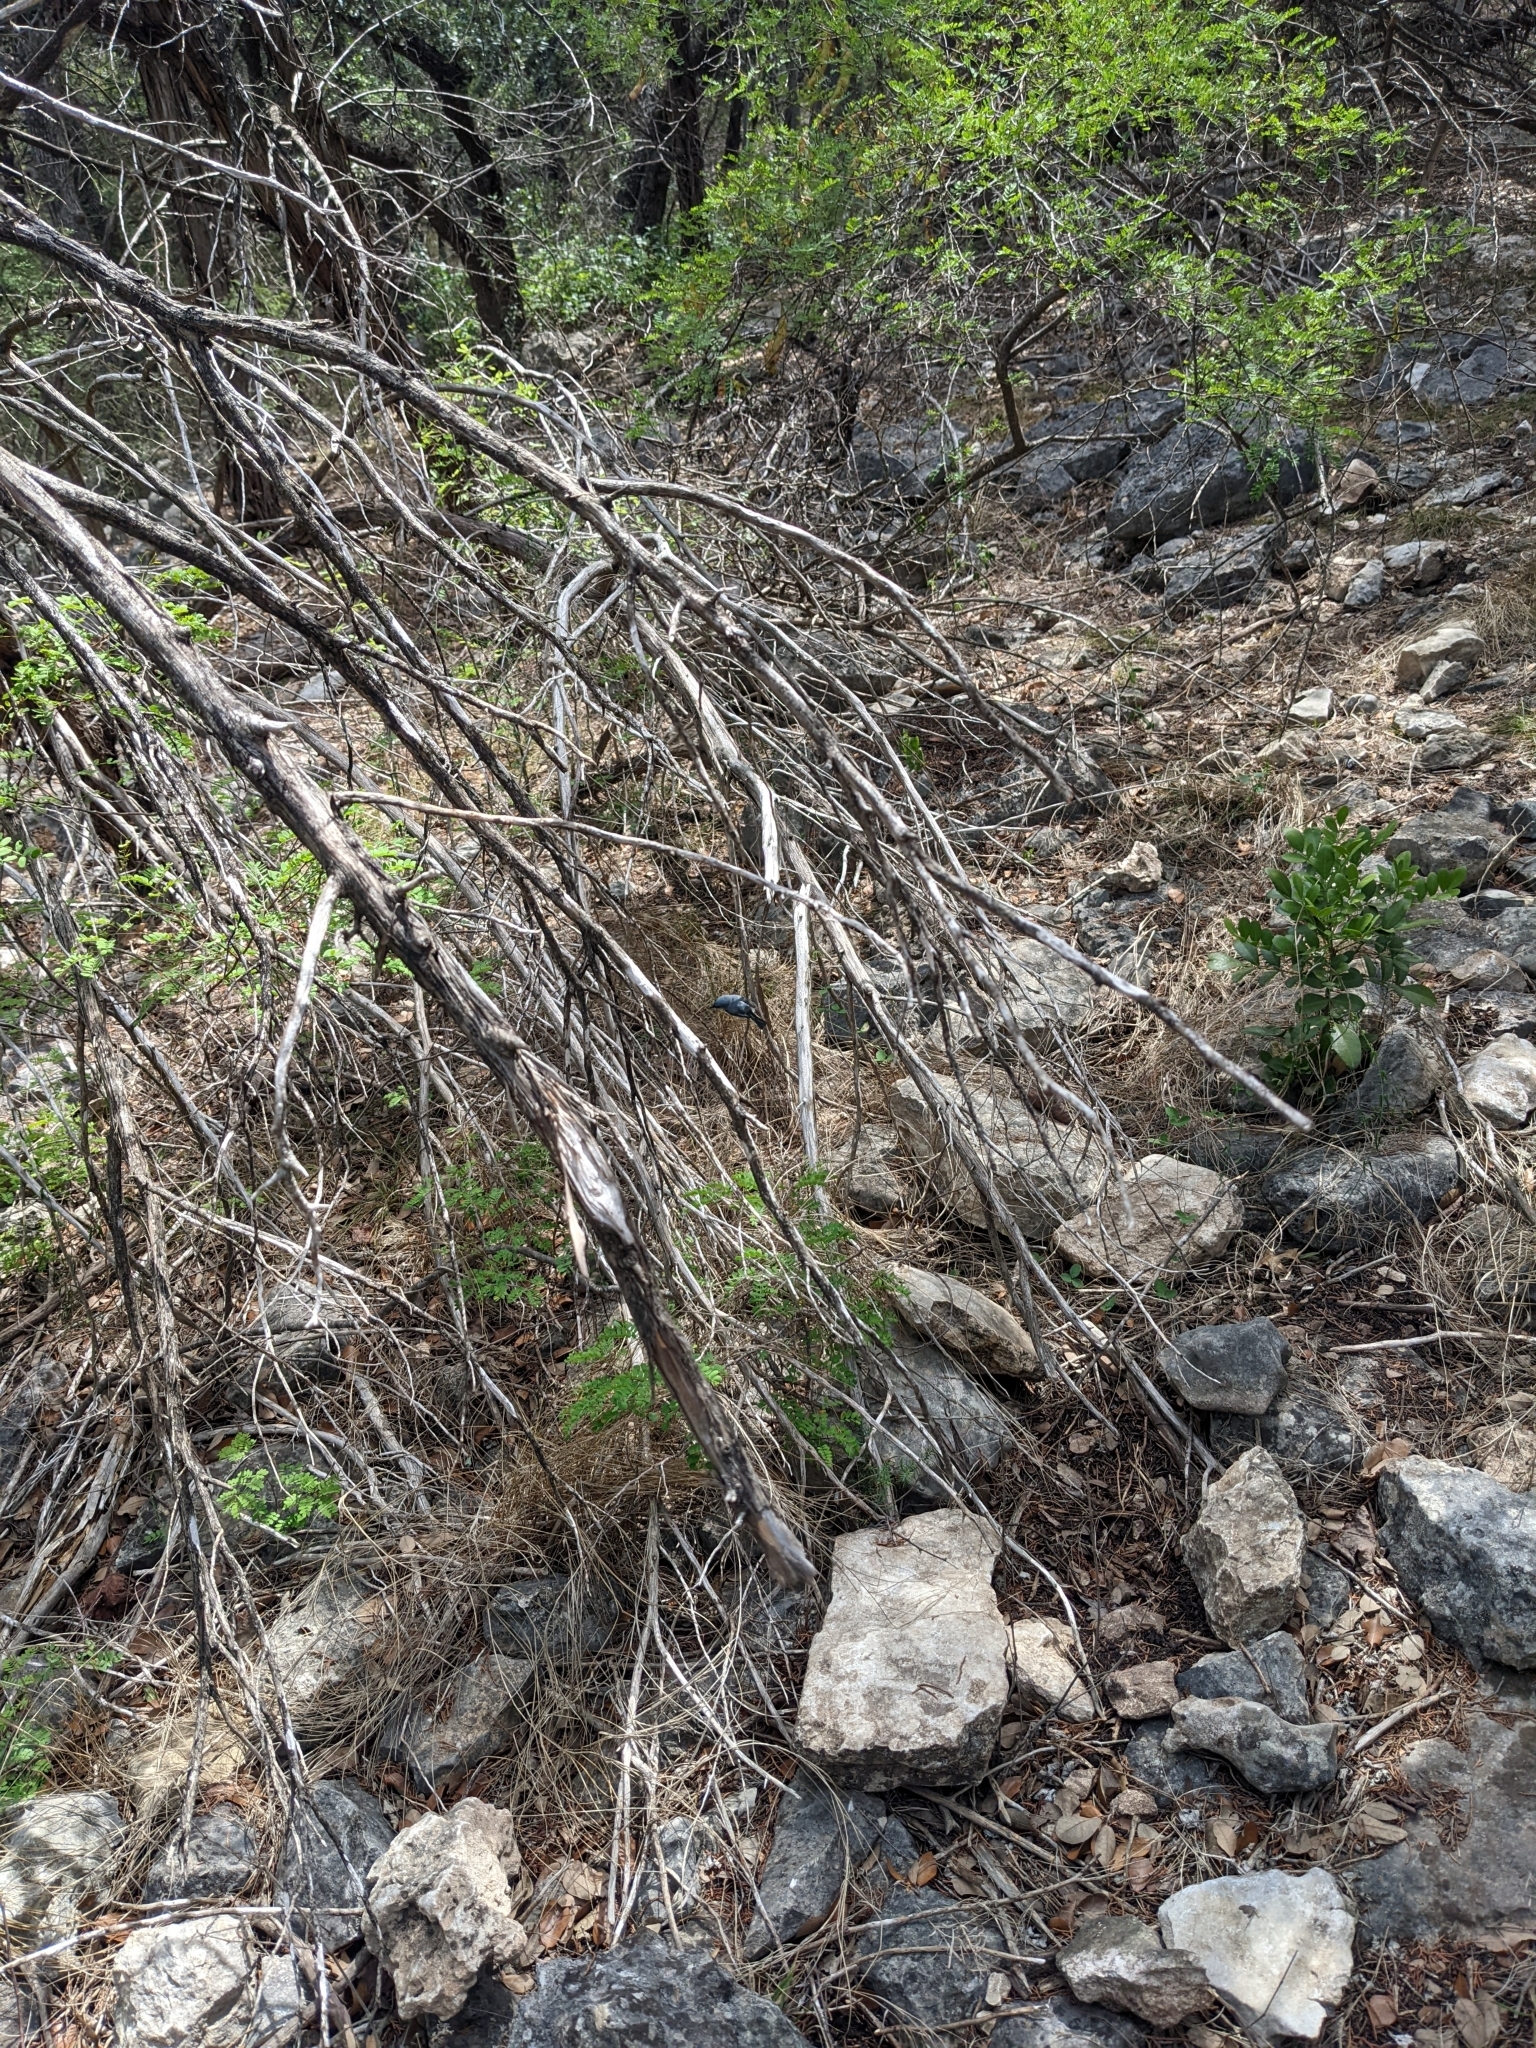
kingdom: Animalia
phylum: Chordata
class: Aves
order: Passeriformes
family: Polioptilidae
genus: Polioptila
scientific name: Polioptila caerulea
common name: Blue-gray gnatcatcher
